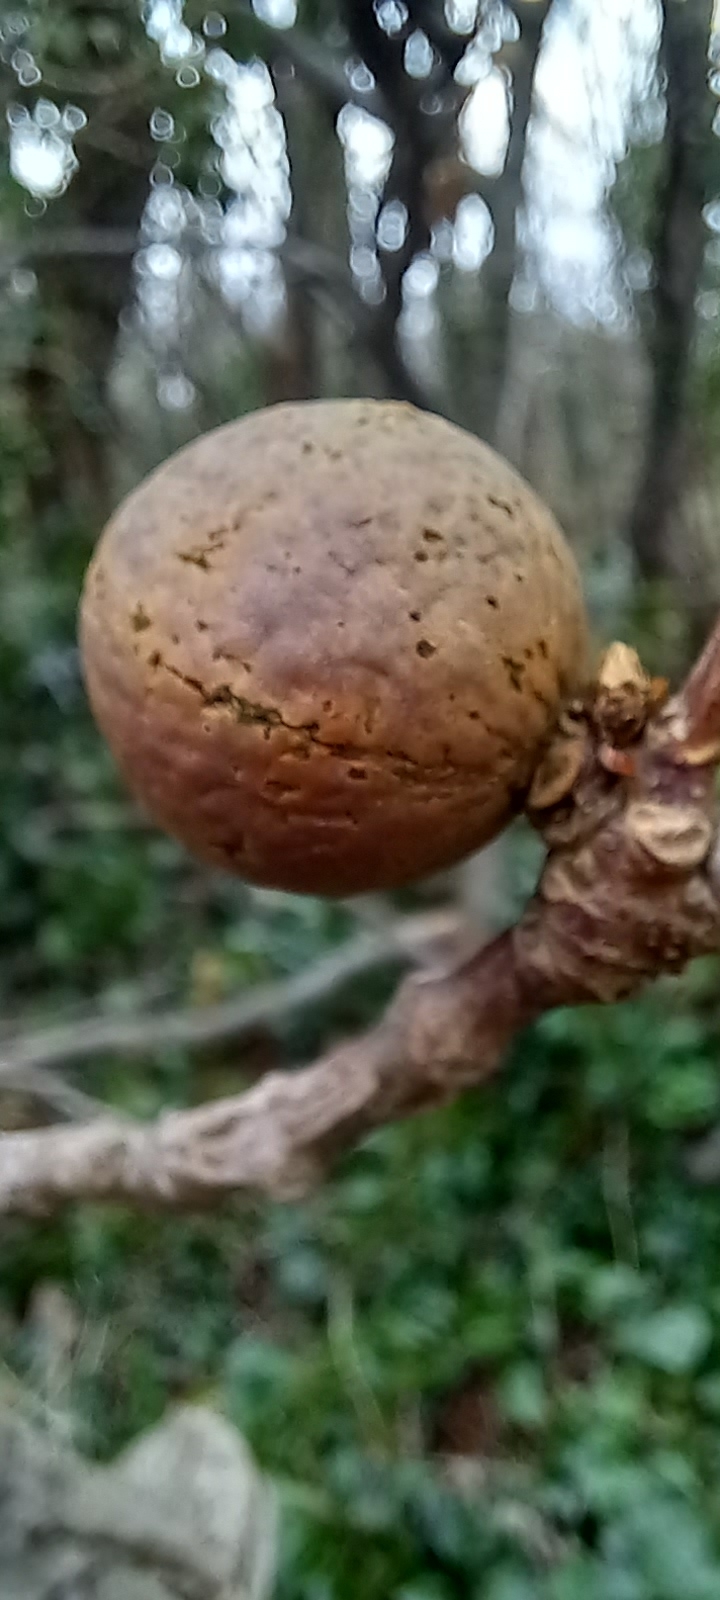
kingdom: Animalia
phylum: Arthropoda
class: Insecta
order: Hymenoptera
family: Cynipidae
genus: Andricus
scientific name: Andricus kollari
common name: Marble gall
